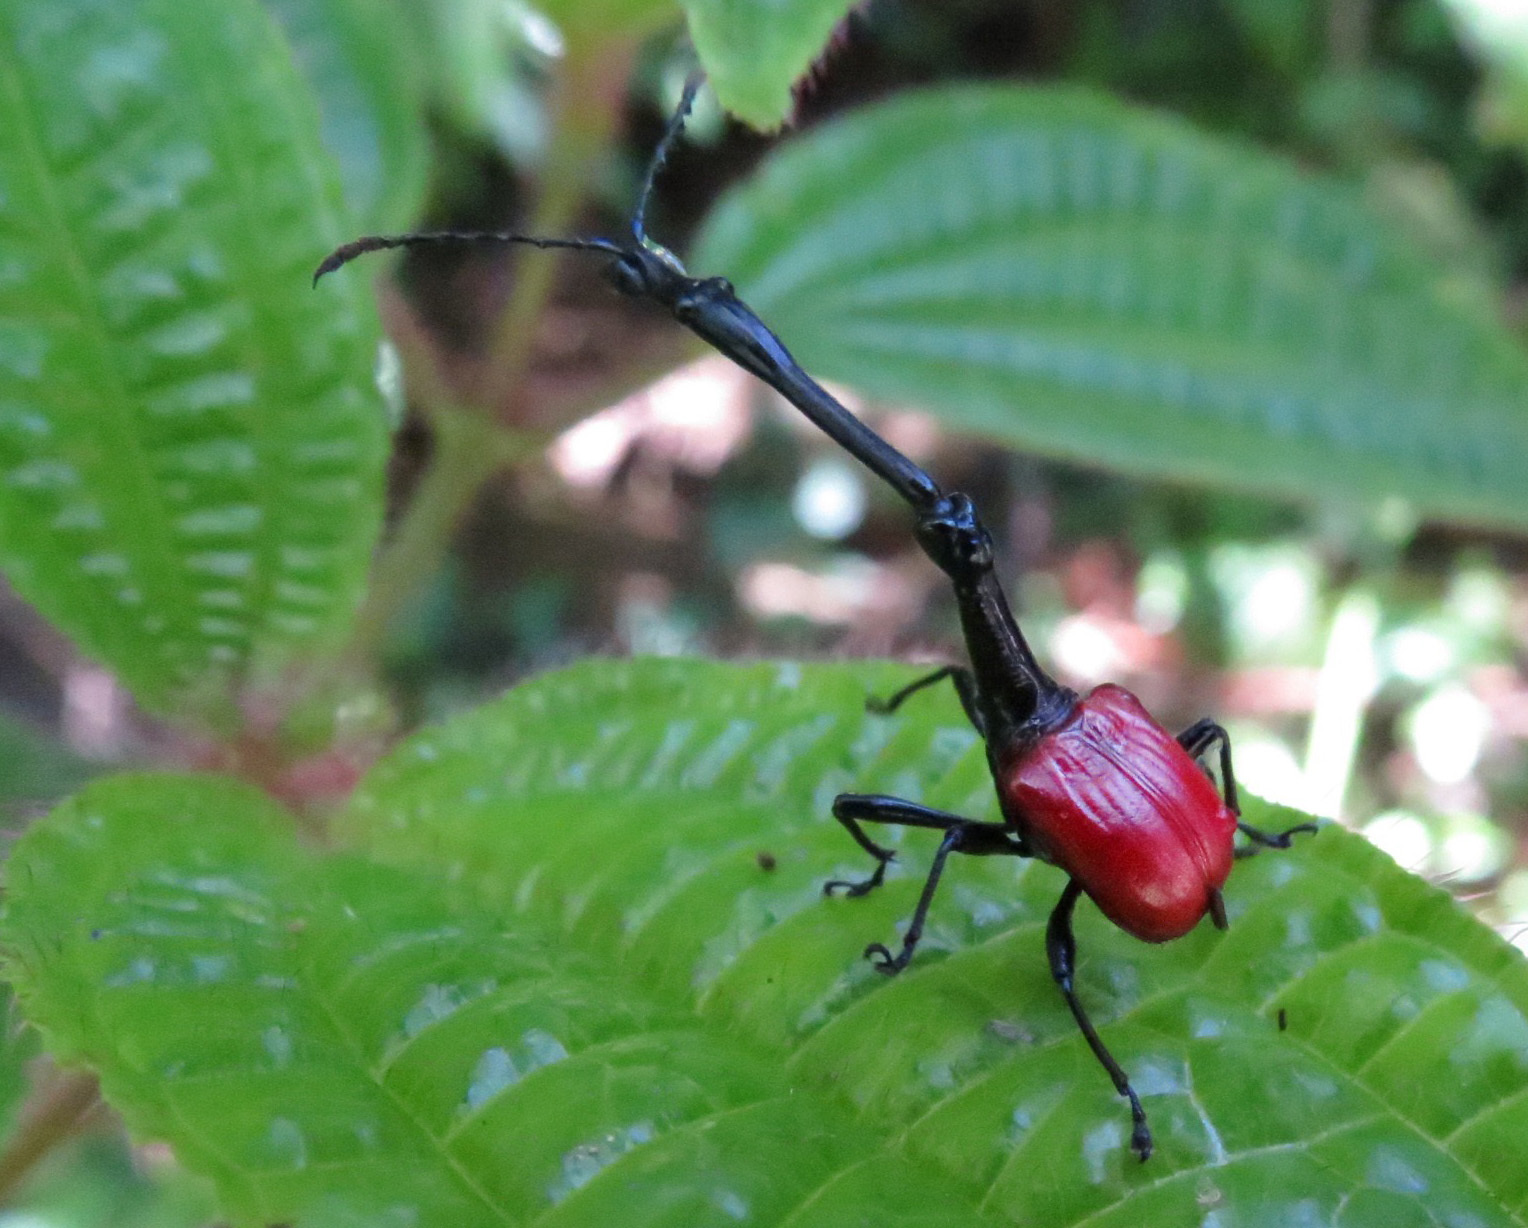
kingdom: Animalia
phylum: Arthropoda
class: Insecta
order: Coleoptera
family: Attelabidae
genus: Trachelophorus
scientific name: Trachelophorus giraffa
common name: Giraffe weevil
